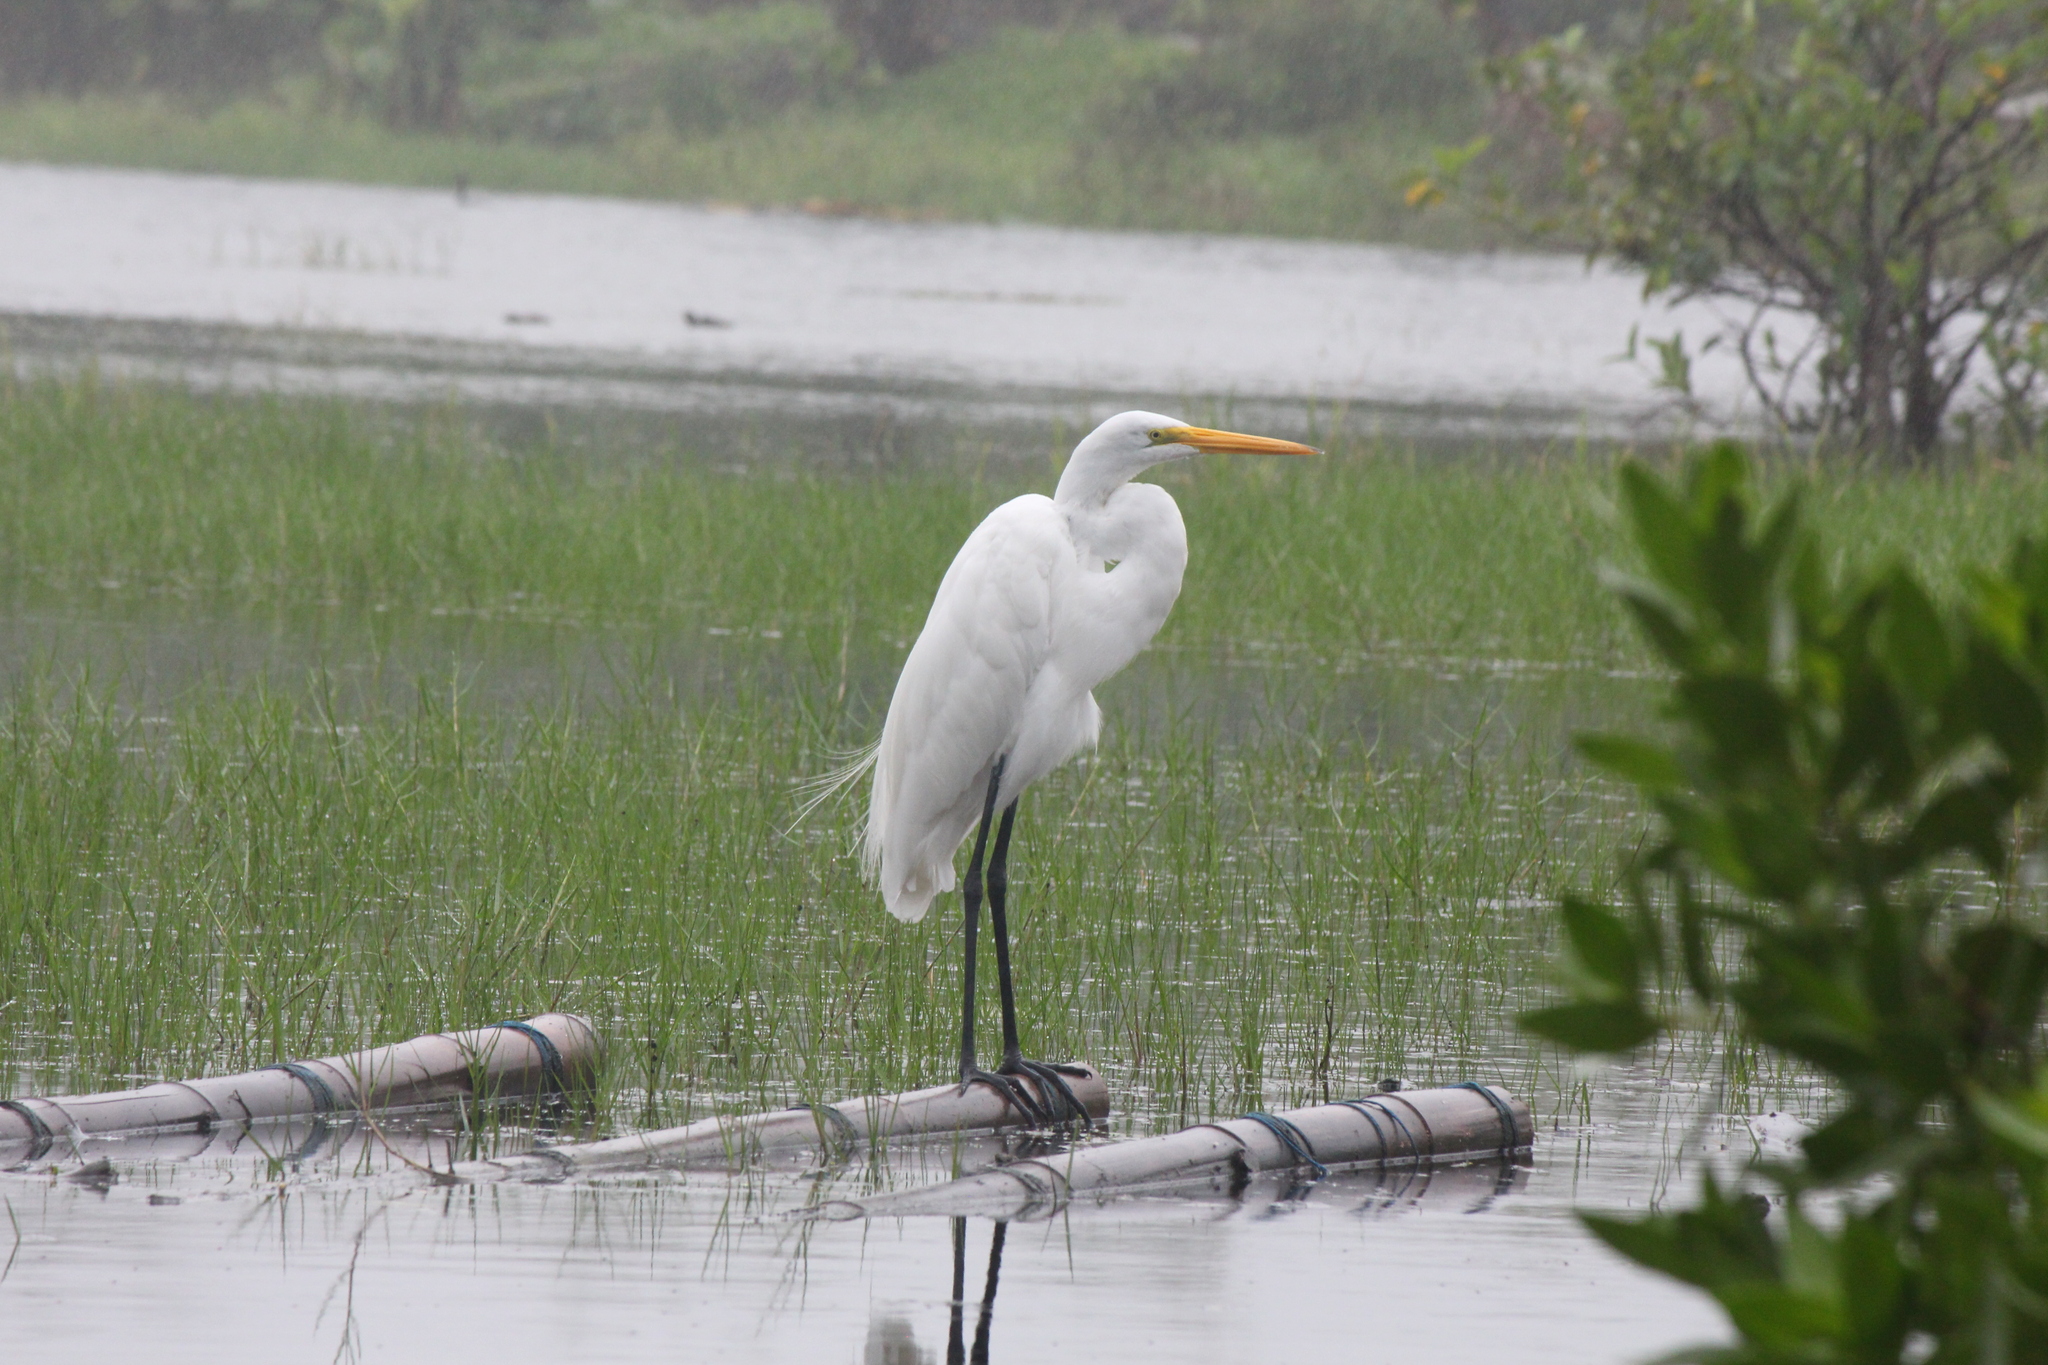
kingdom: Animalia
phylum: Chordata
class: Aves
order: Pelecaniformes
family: Ardeidae
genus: Ardea
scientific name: Ardea alba
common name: Great egret
